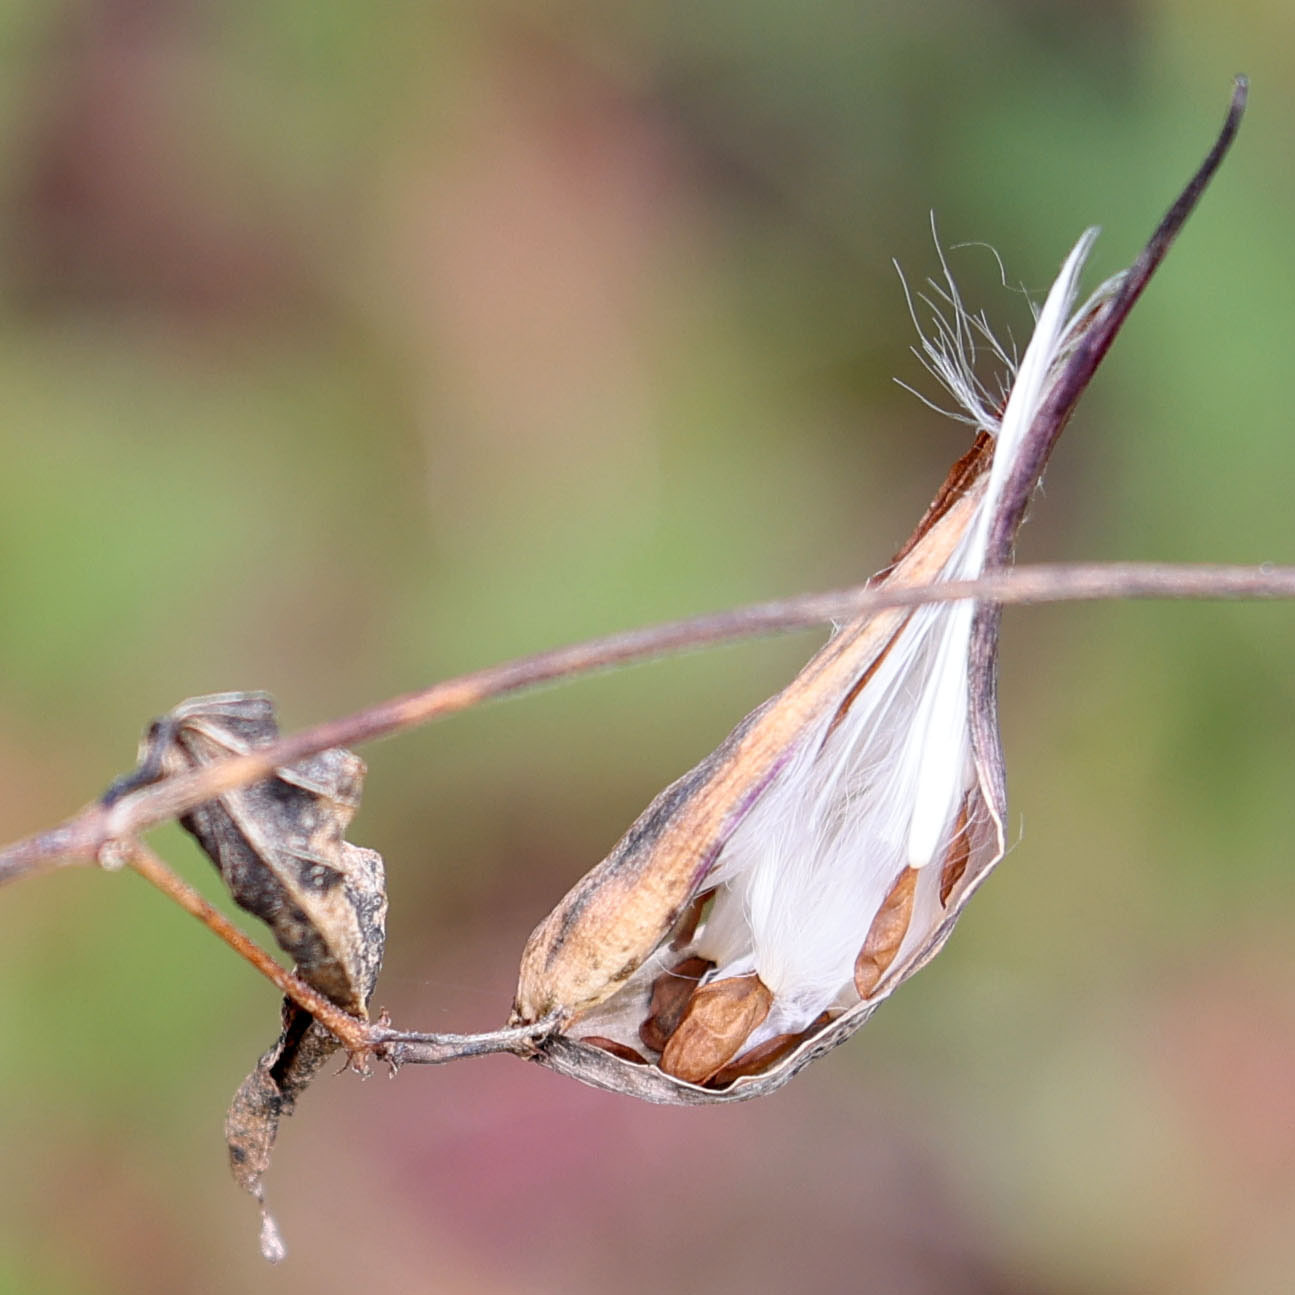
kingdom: Plantae
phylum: Tracheophyta
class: Magnoliopsida
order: Gentianales
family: Apocynaceae
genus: Vincetoxicum
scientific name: Vincetoxicum rossicum
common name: Dog-strangling vine
